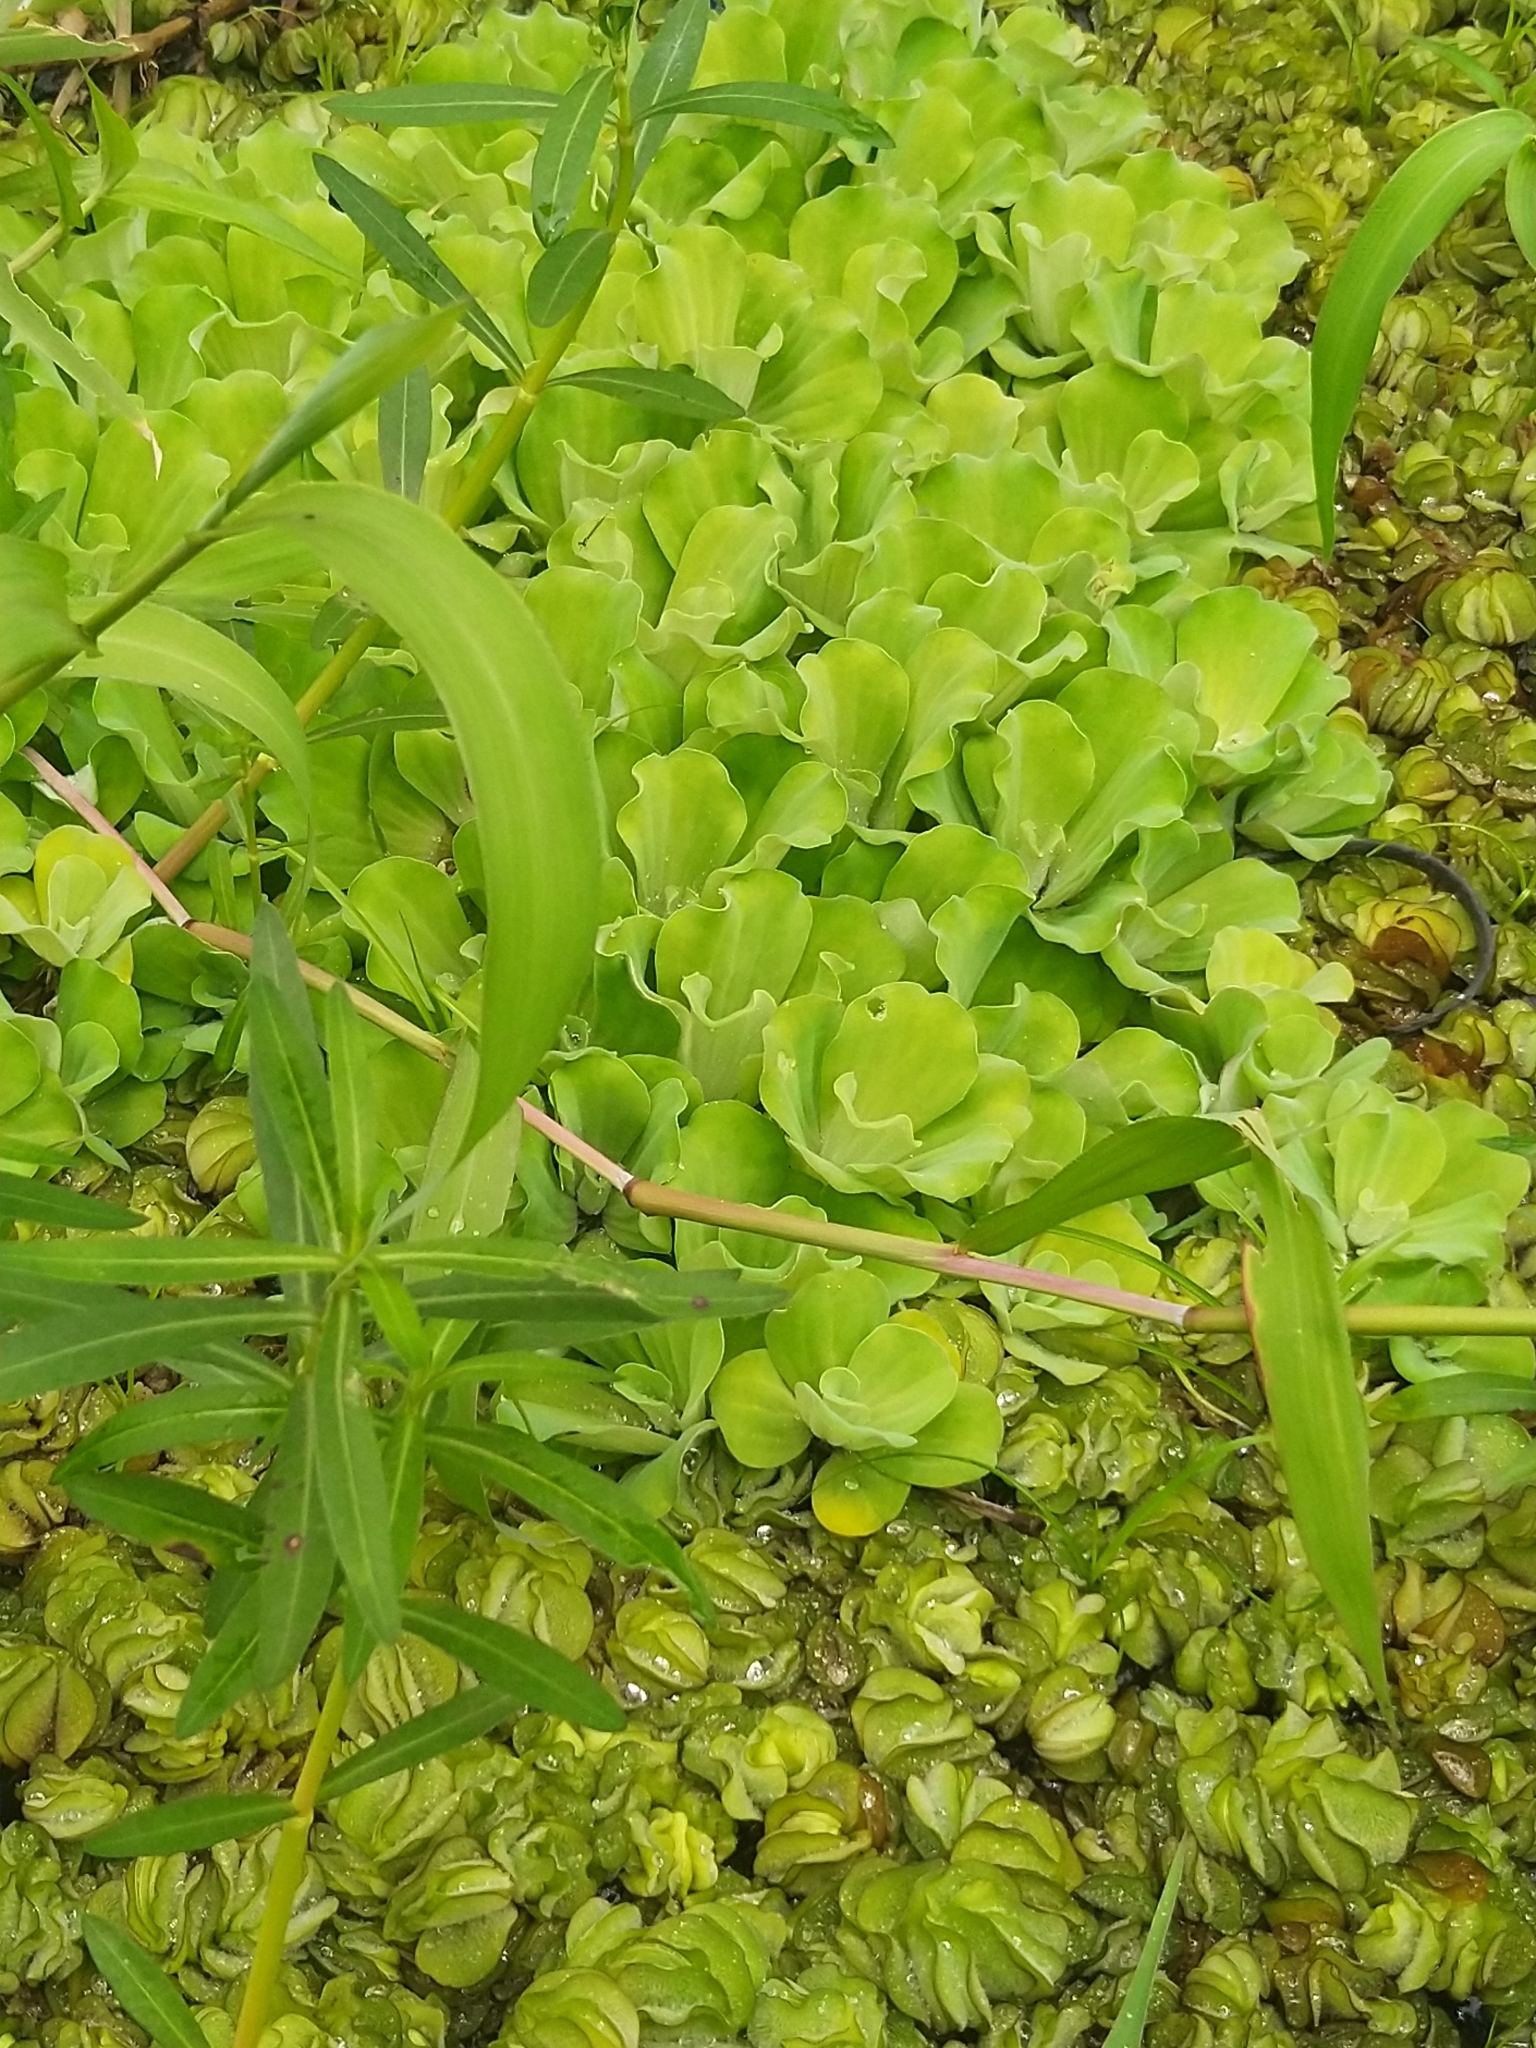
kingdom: Plantae
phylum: Tracheophyta
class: Liliopsida
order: Alismatales
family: Araceae
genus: Pistia
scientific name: Pistia stratiotes
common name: Water lettuce
